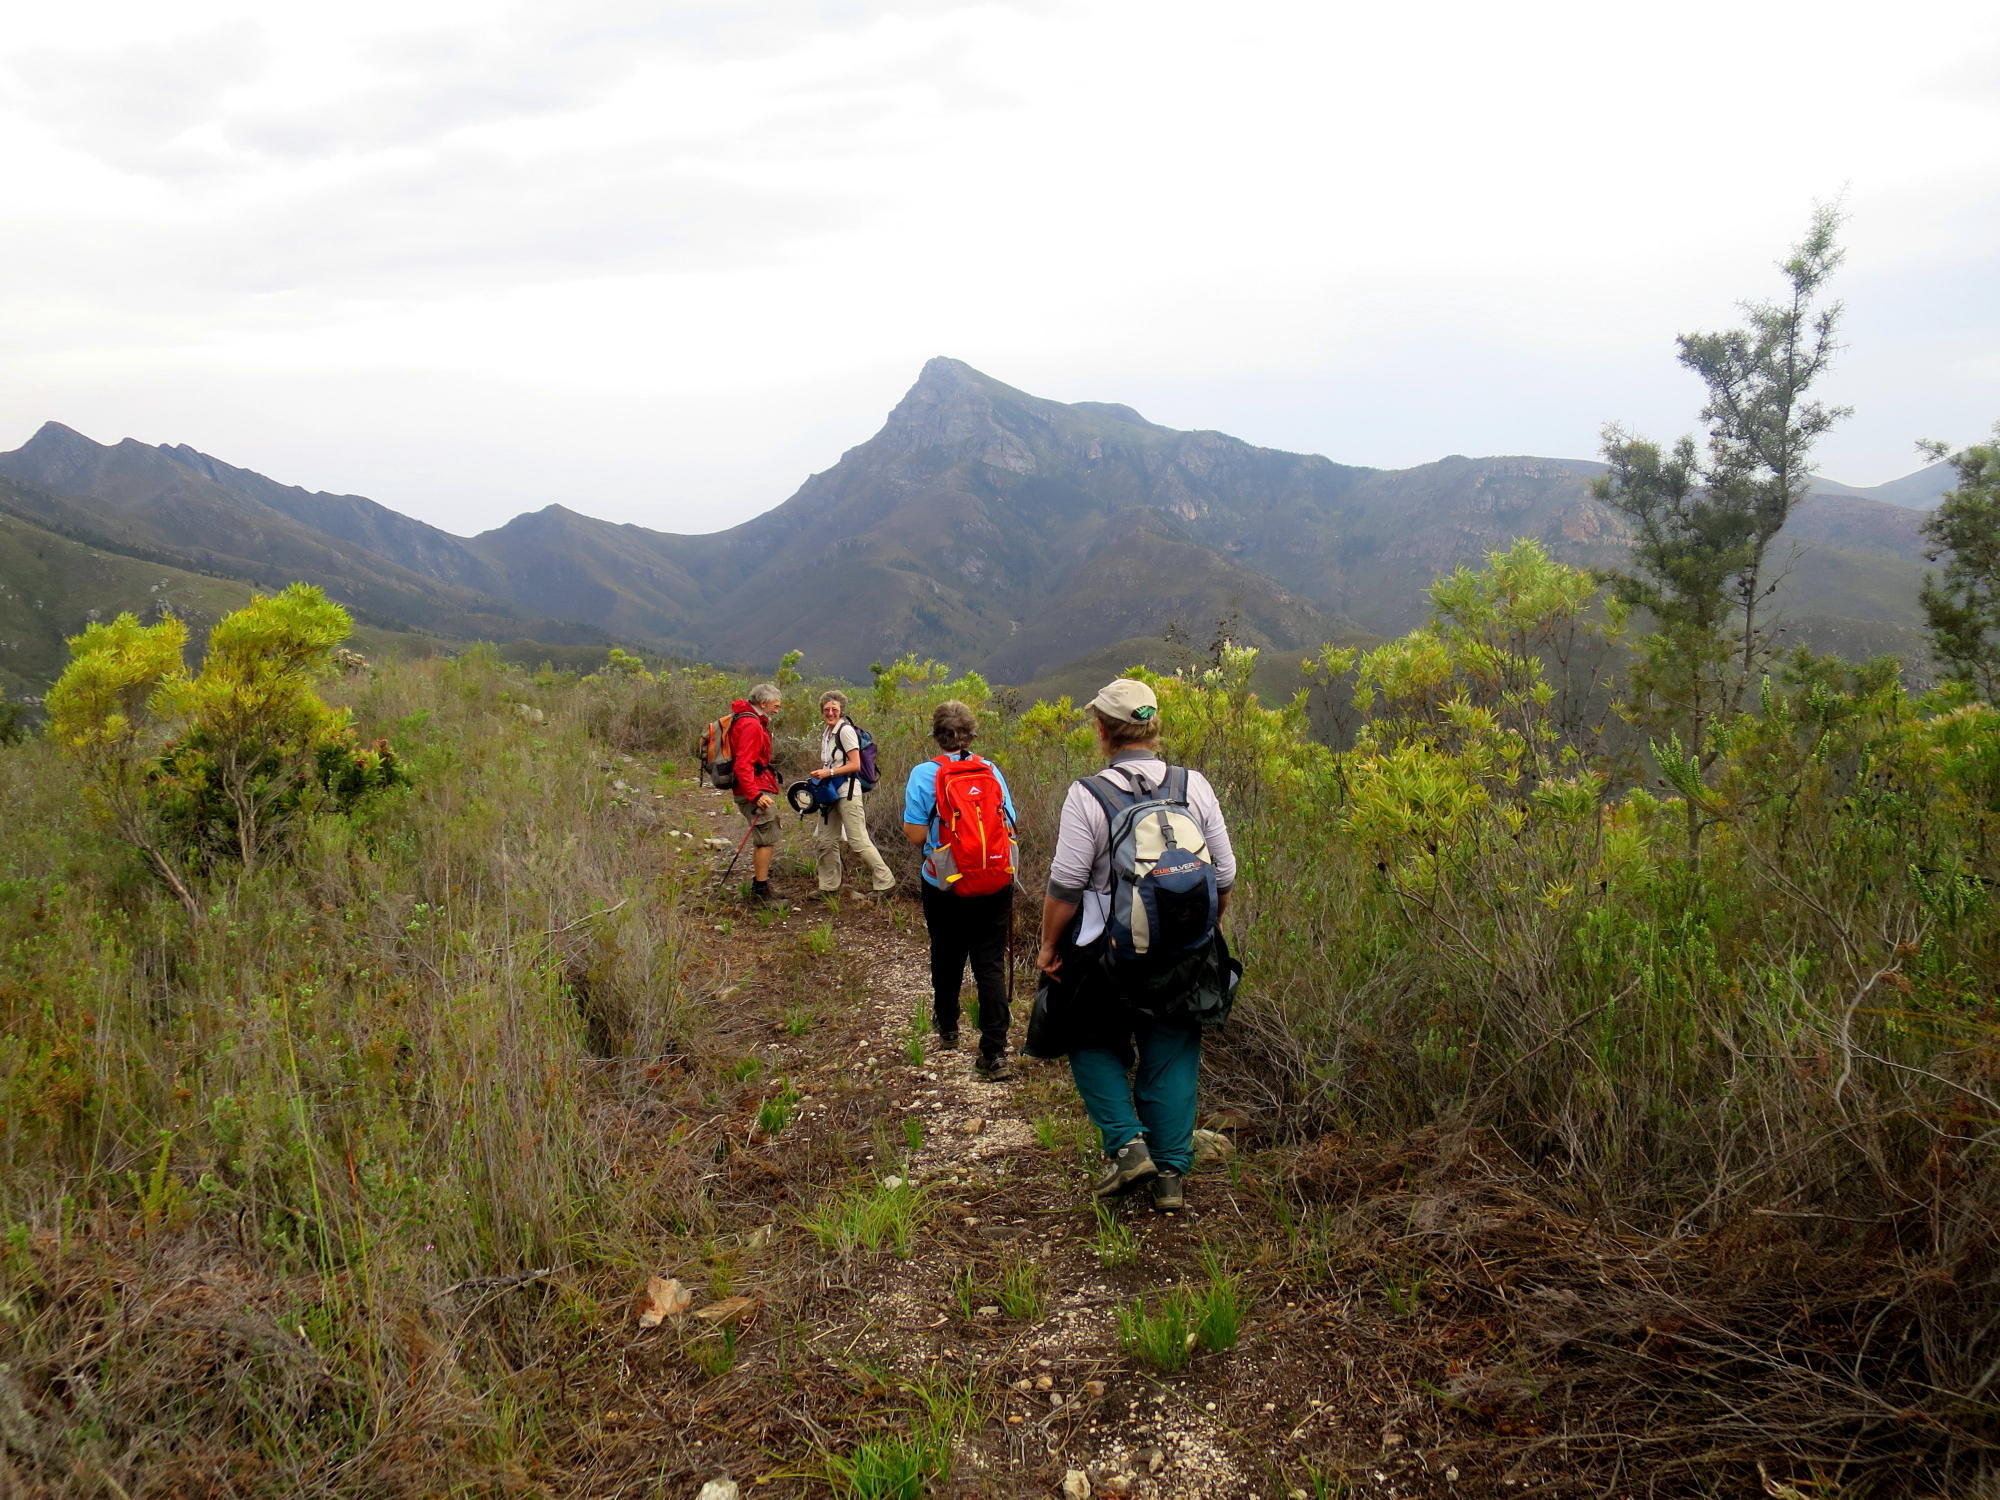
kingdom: Plantae
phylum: Tracheophyta
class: Magnoliopsida
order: Proteales
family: Proteaceae
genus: Hakea
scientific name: Hakea sericea
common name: Needle bush
